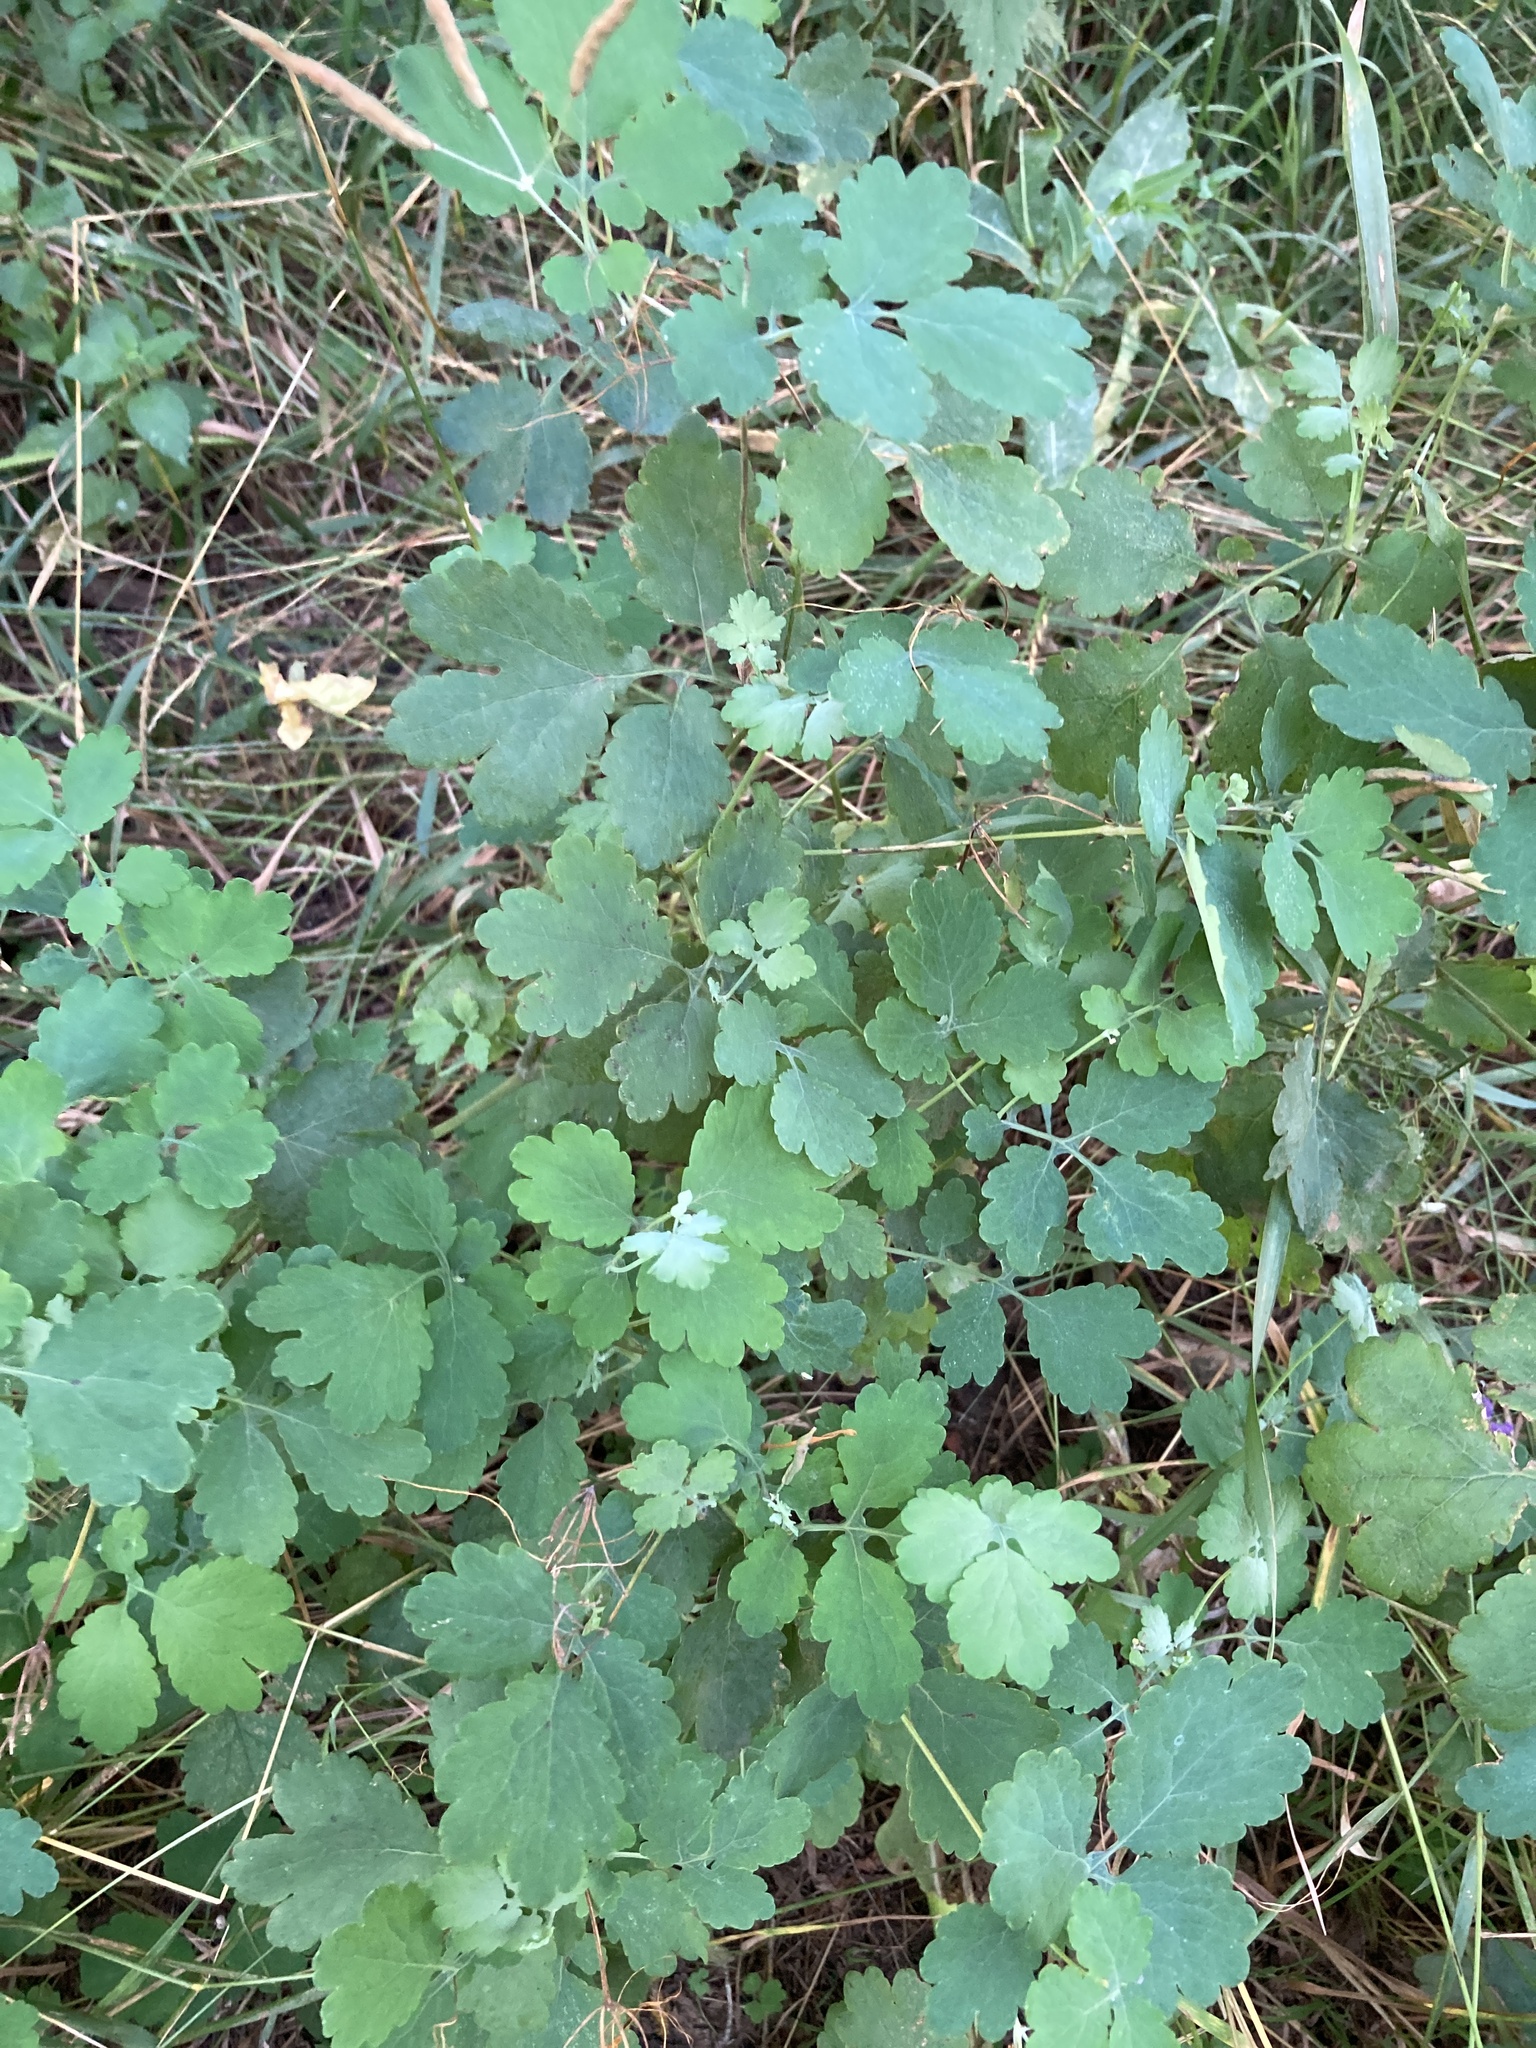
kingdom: Plantae
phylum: Tracheophyta
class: Magnoliopsida
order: Ranunculales
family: Papaveraceae
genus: Chelidonium
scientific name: Chelidonium majus
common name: Greater celandine
